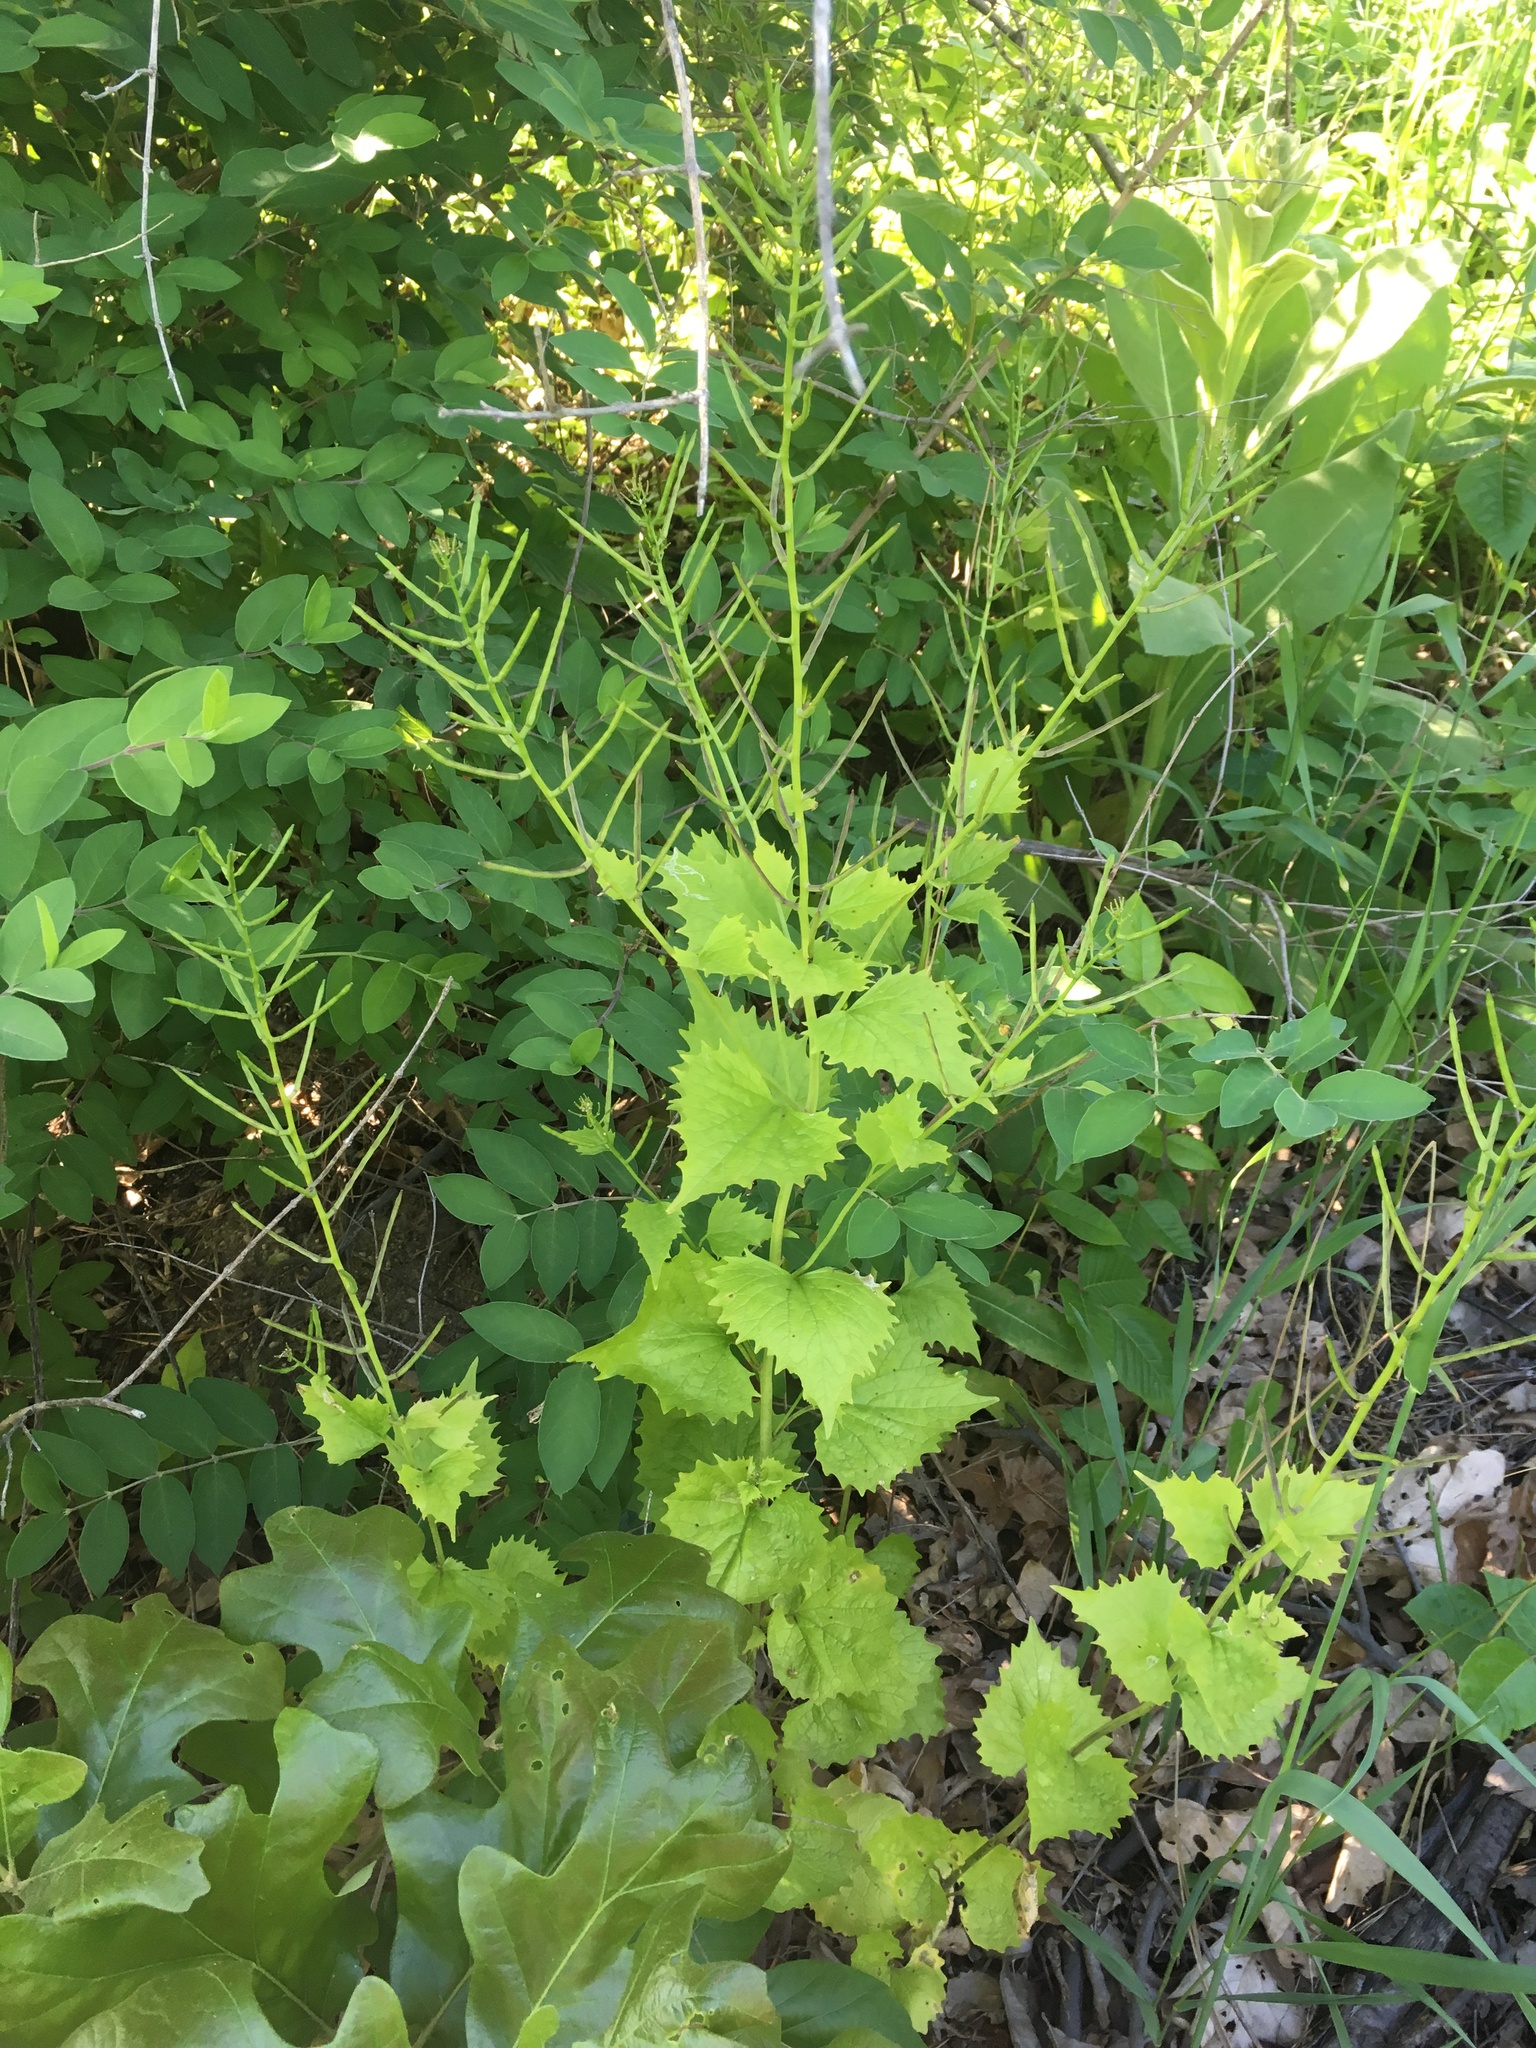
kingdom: Plantae
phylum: Tracheophyta
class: Magnoliopsida
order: Brassicales
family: Brassicaceae
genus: Alliaria
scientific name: Alliaria petiolata
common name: Garlic mustard
